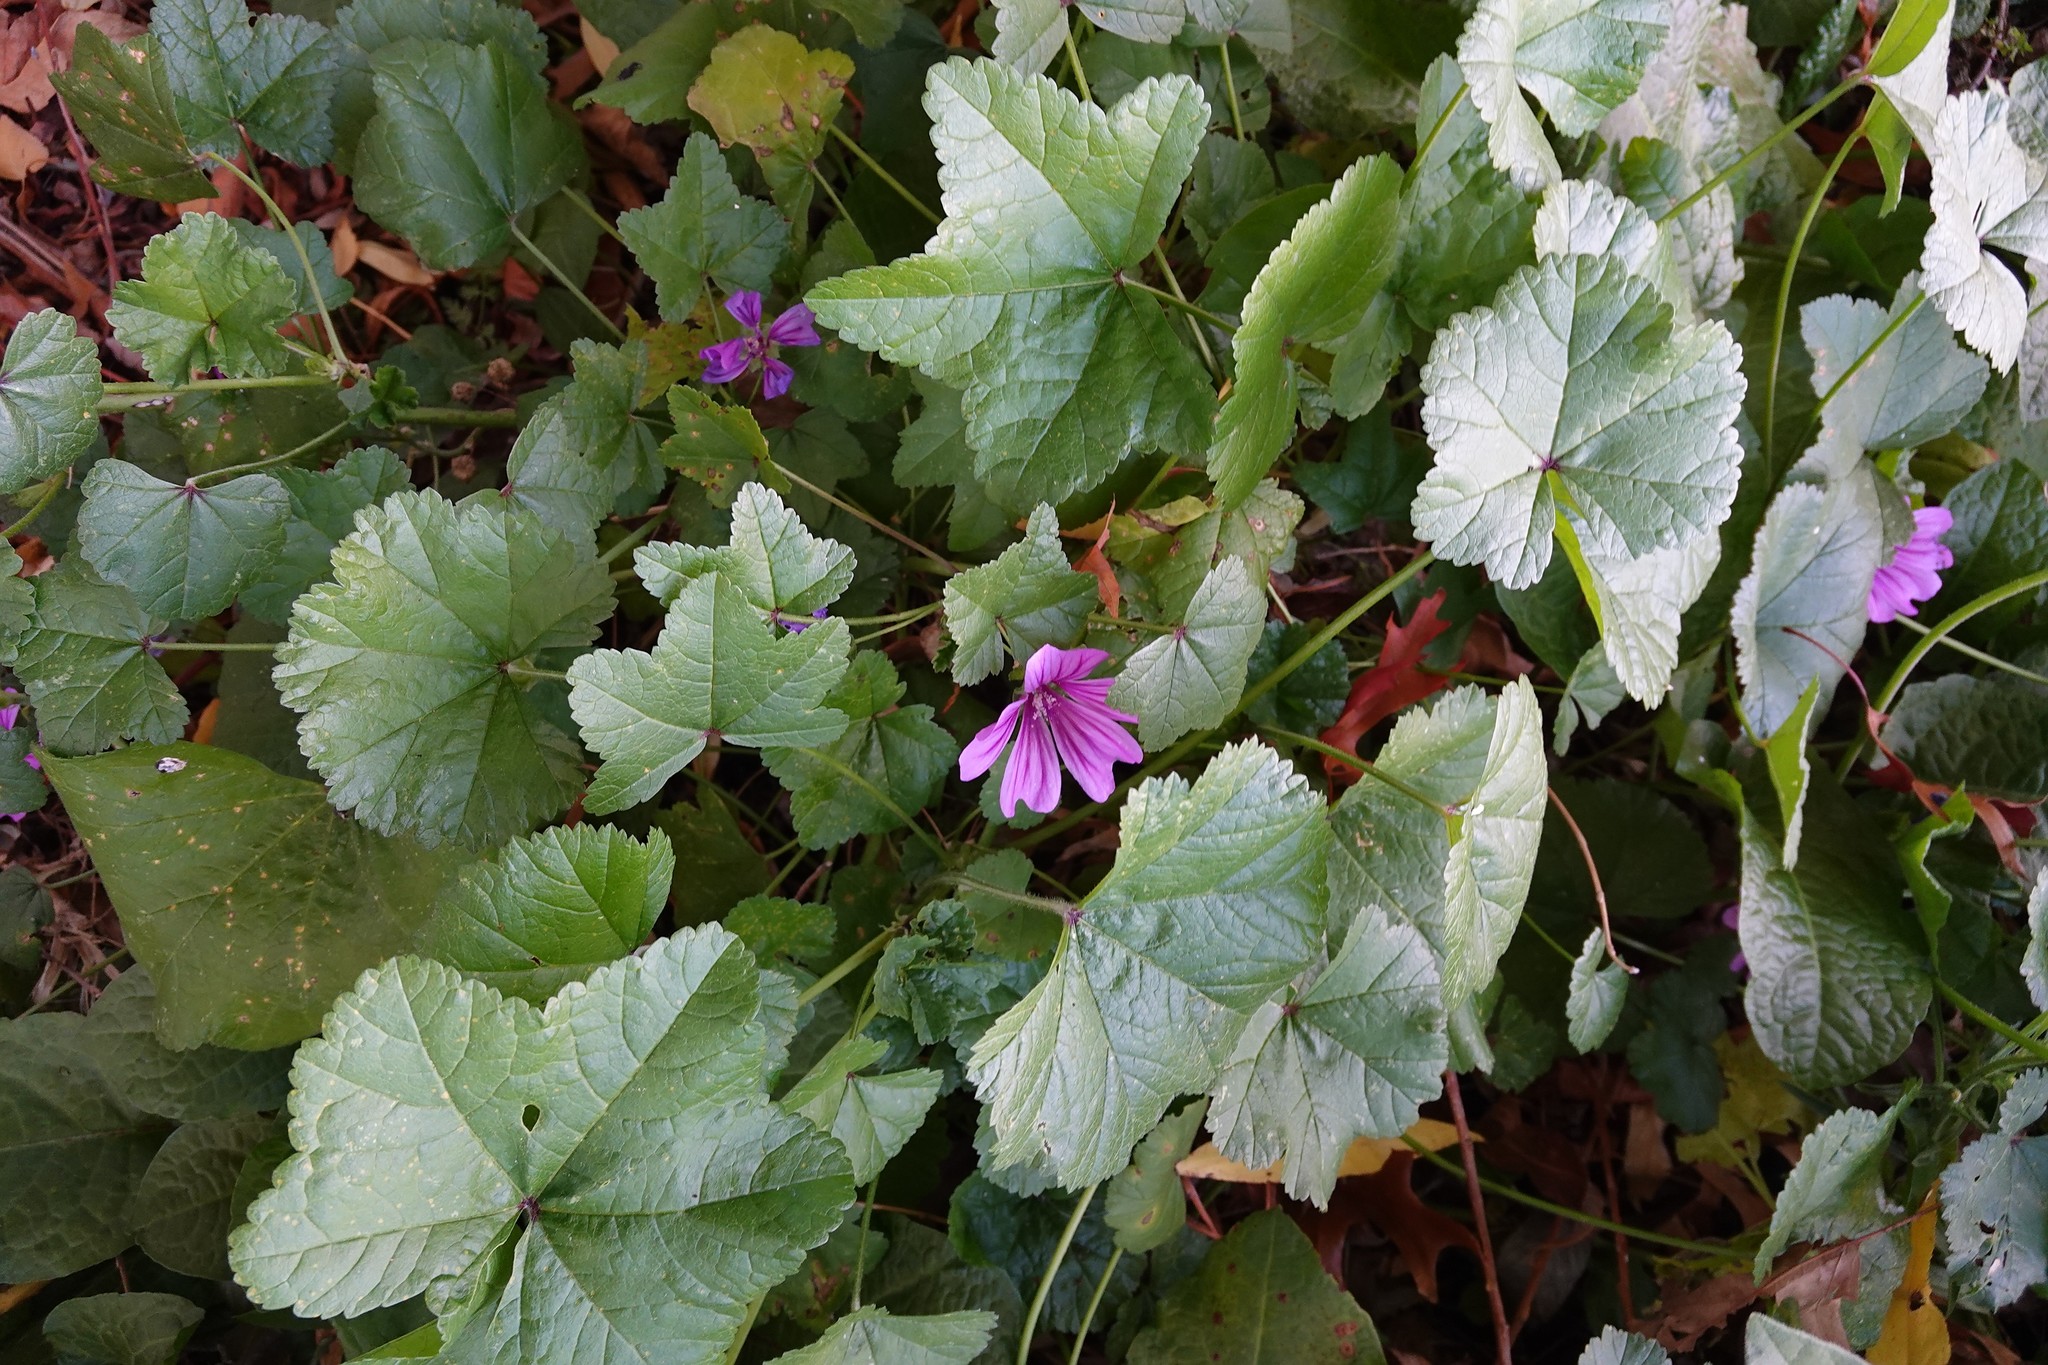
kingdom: Plantae
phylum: Tracheophyta
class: Magnoliopsida
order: Malvales
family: Malvaceae
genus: Malva
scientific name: Malva sylvestris
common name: Common mallow
